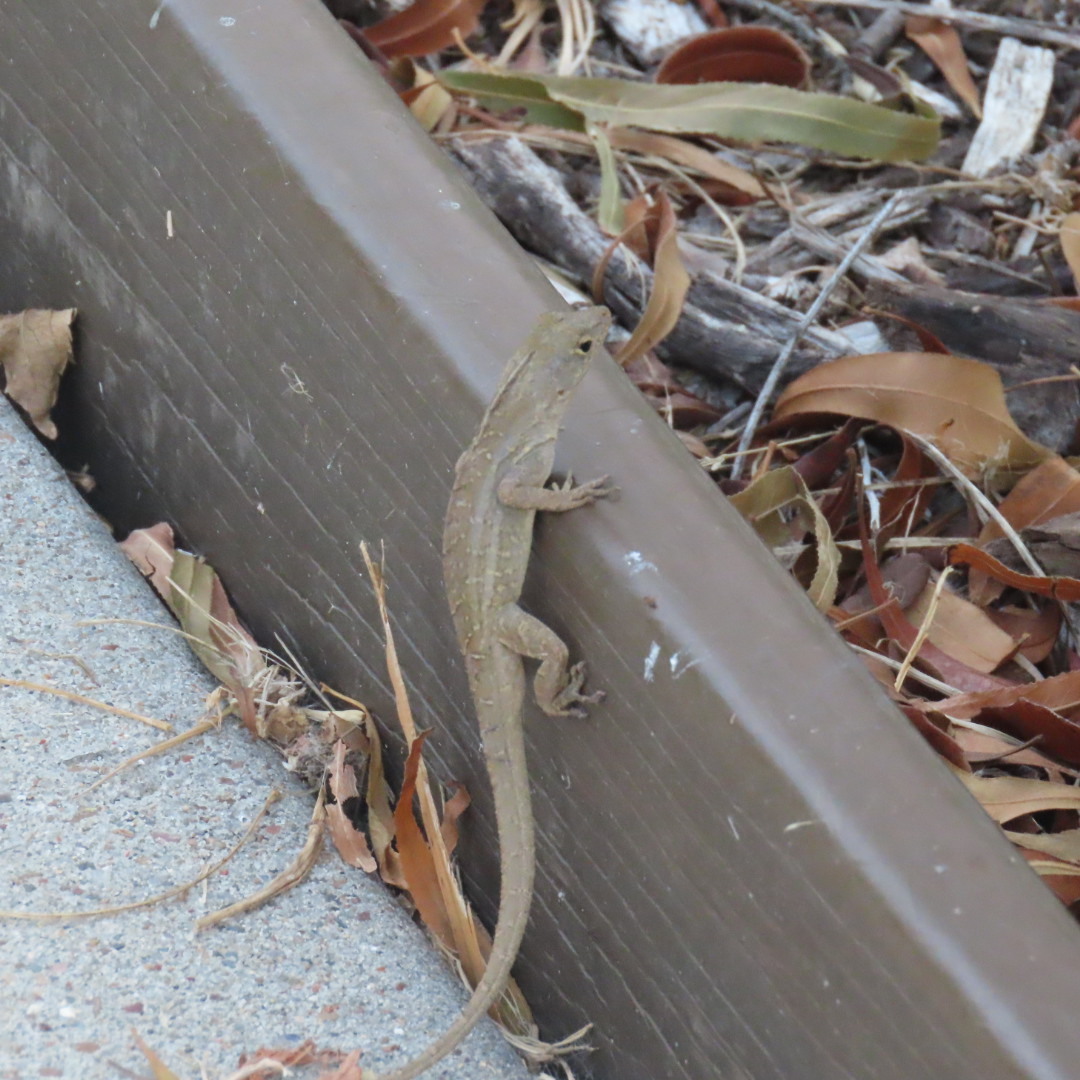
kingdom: Animalia
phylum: Chordata
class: Squamata
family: Dactyloidae
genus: Anolis
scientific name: Anolis sagrei
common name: Brown anole
